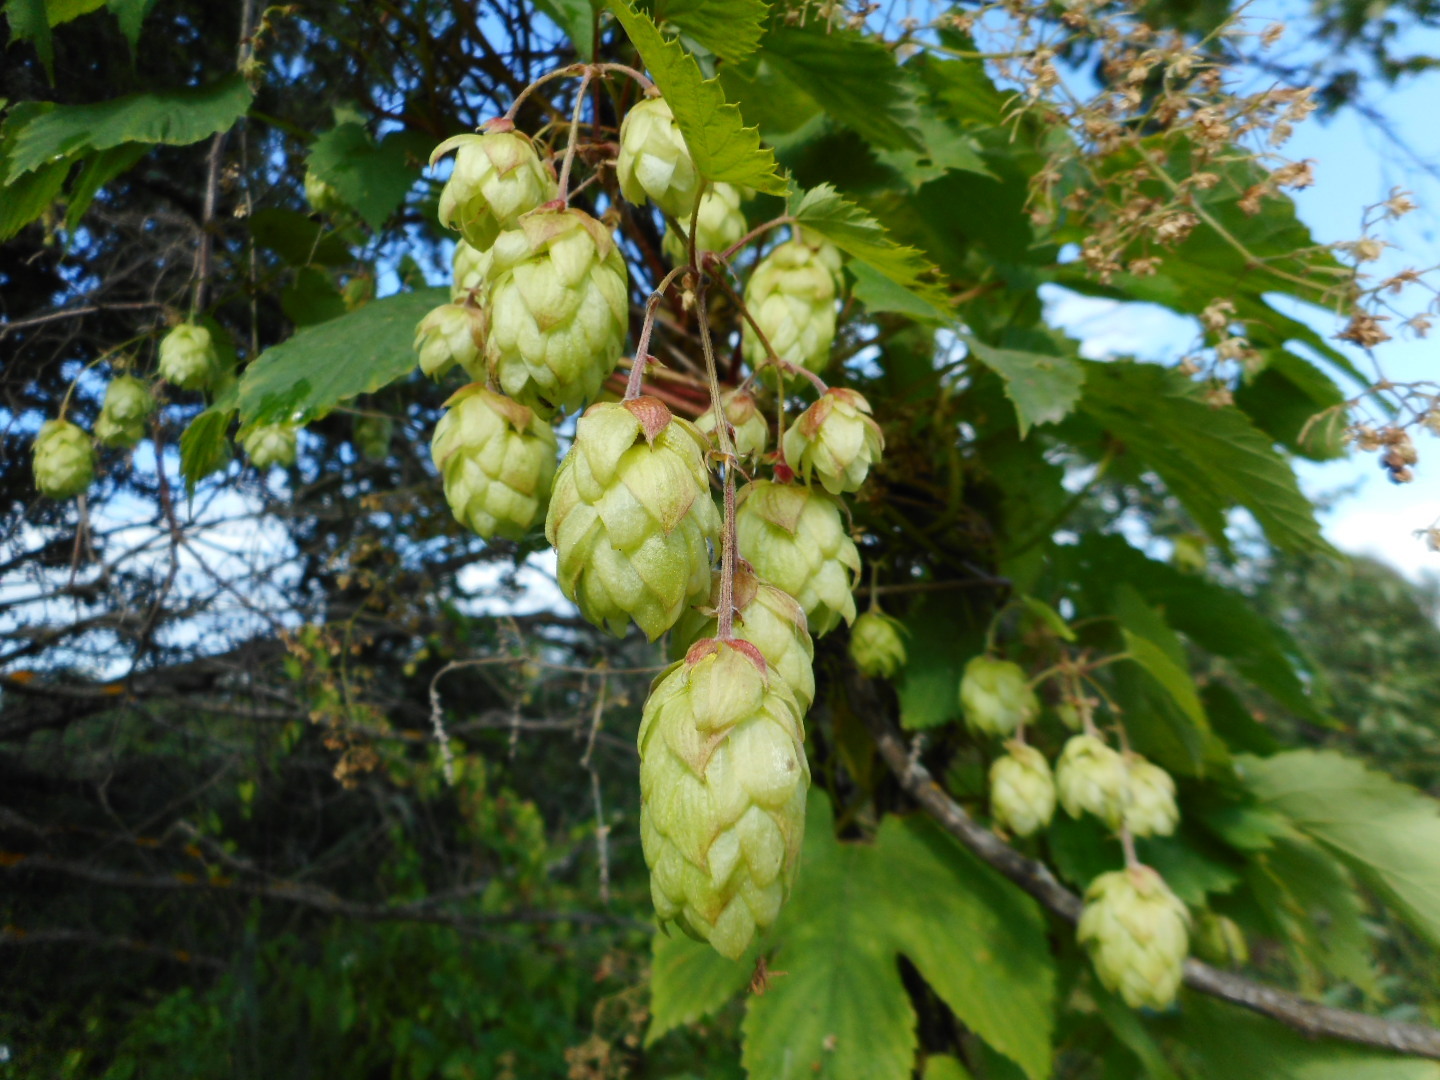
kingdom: Plantae
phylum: Tracheophyta
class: Magnoliopsida
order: Rosales
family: Cannabaceae
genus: Humulus
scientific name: Humulus lupulus
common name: Hop
